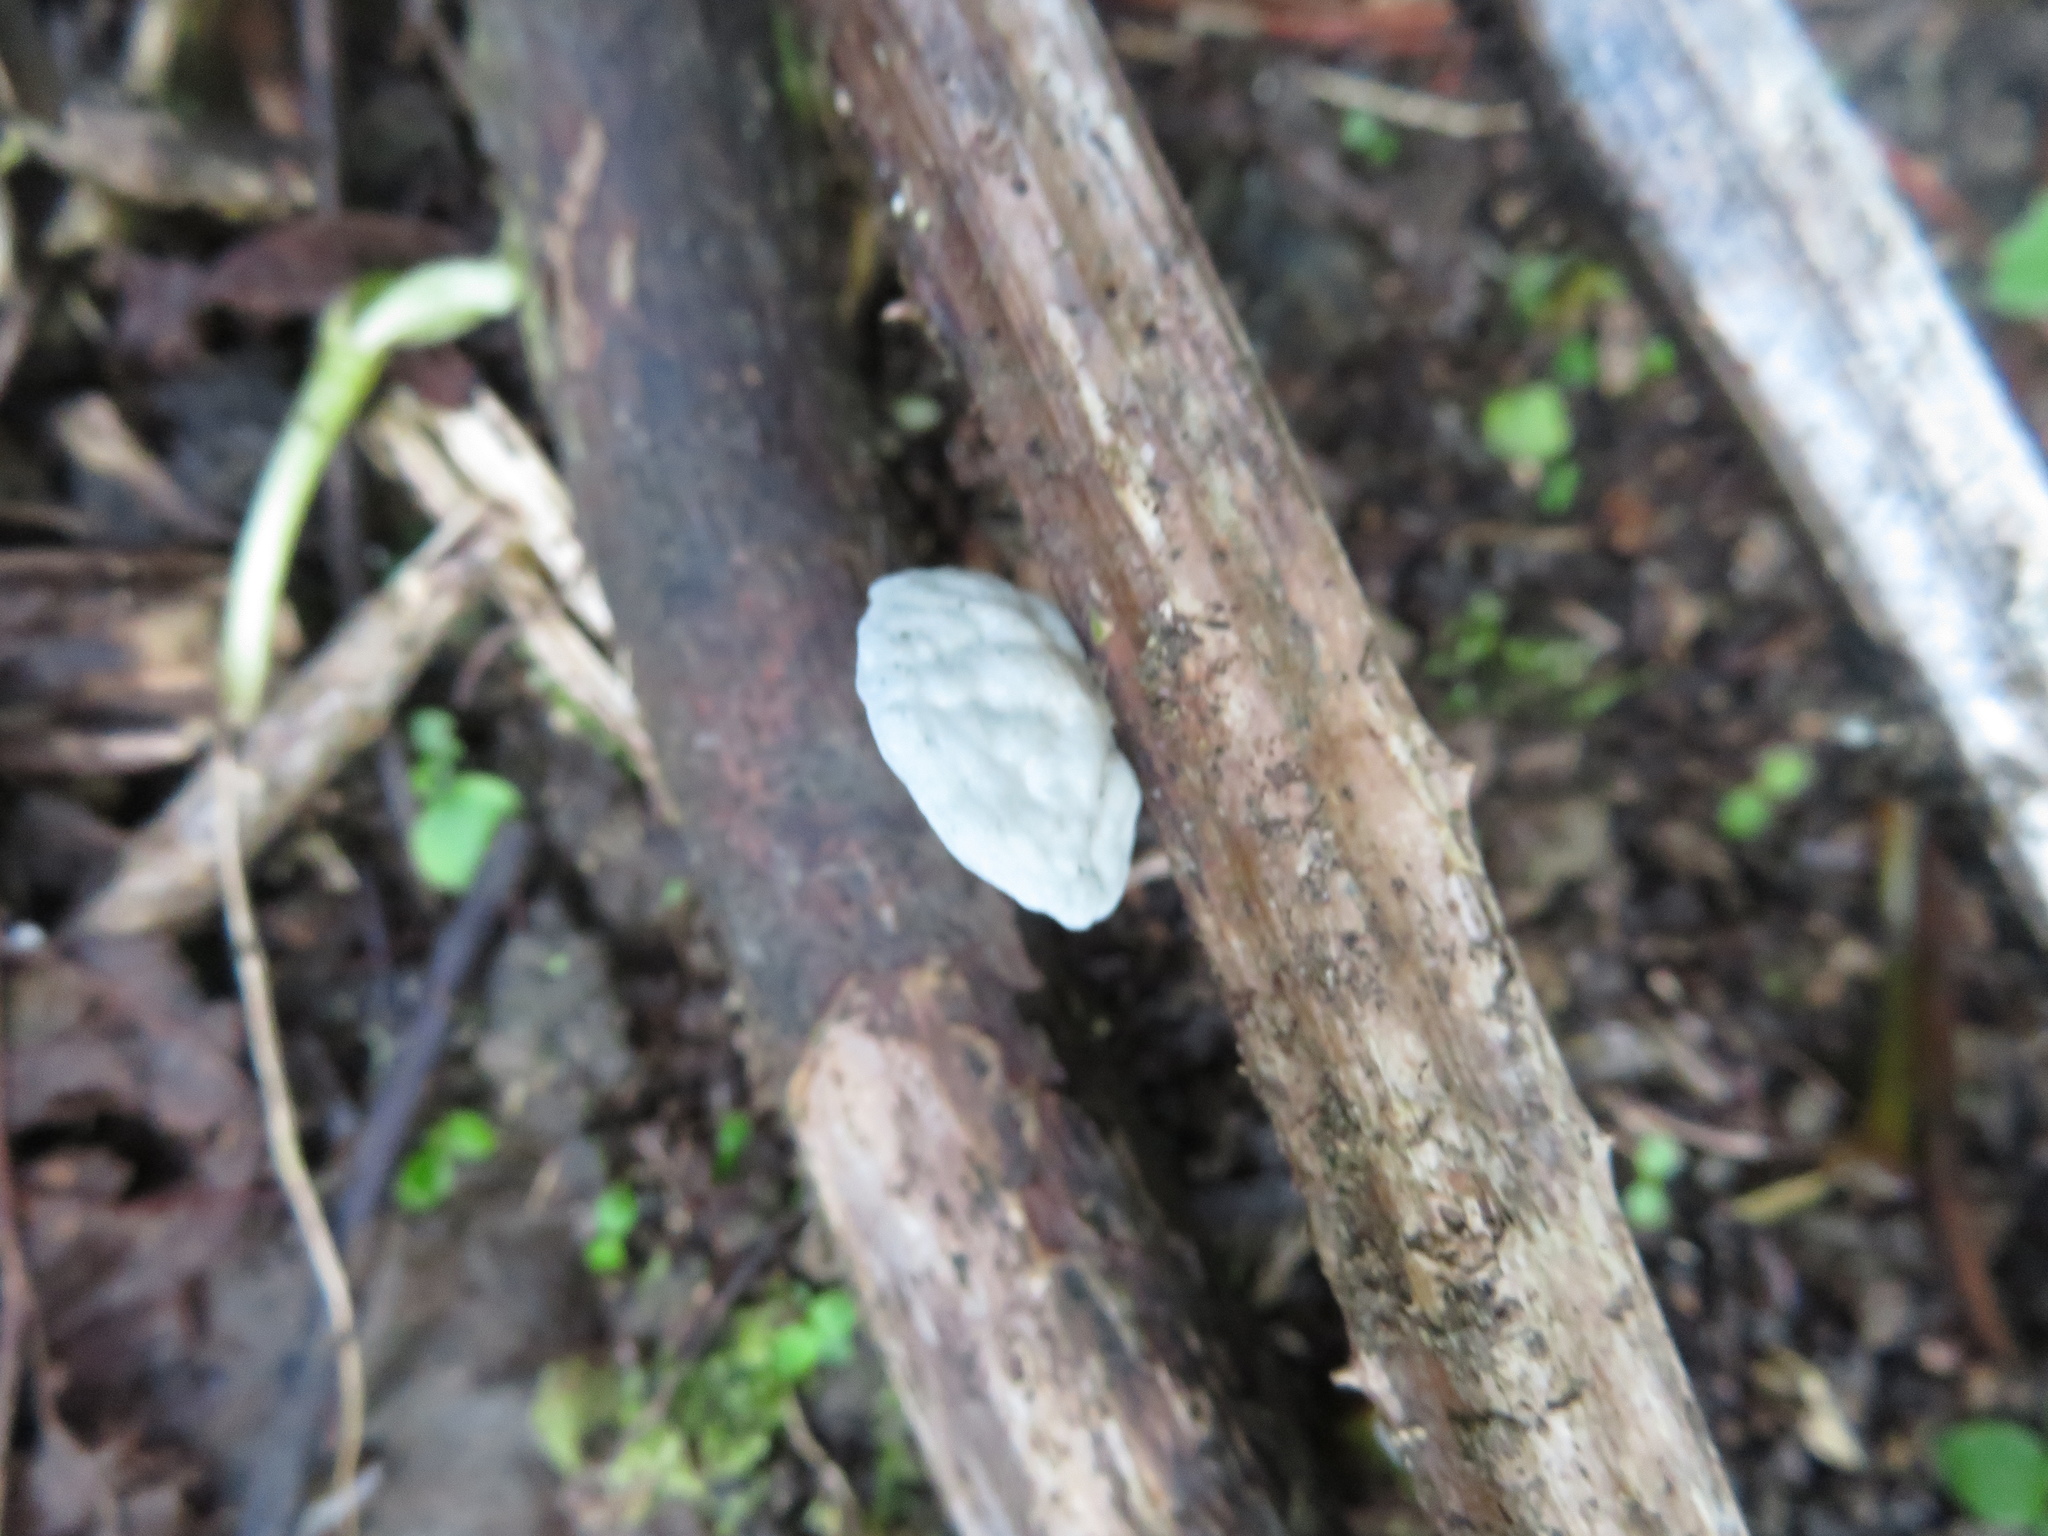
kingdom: Fungi
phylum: Basidiomycota
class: Agaricomycetes
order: Agaricales
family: Marasmiaceae
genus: Campanella
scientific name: Campanella tristis
